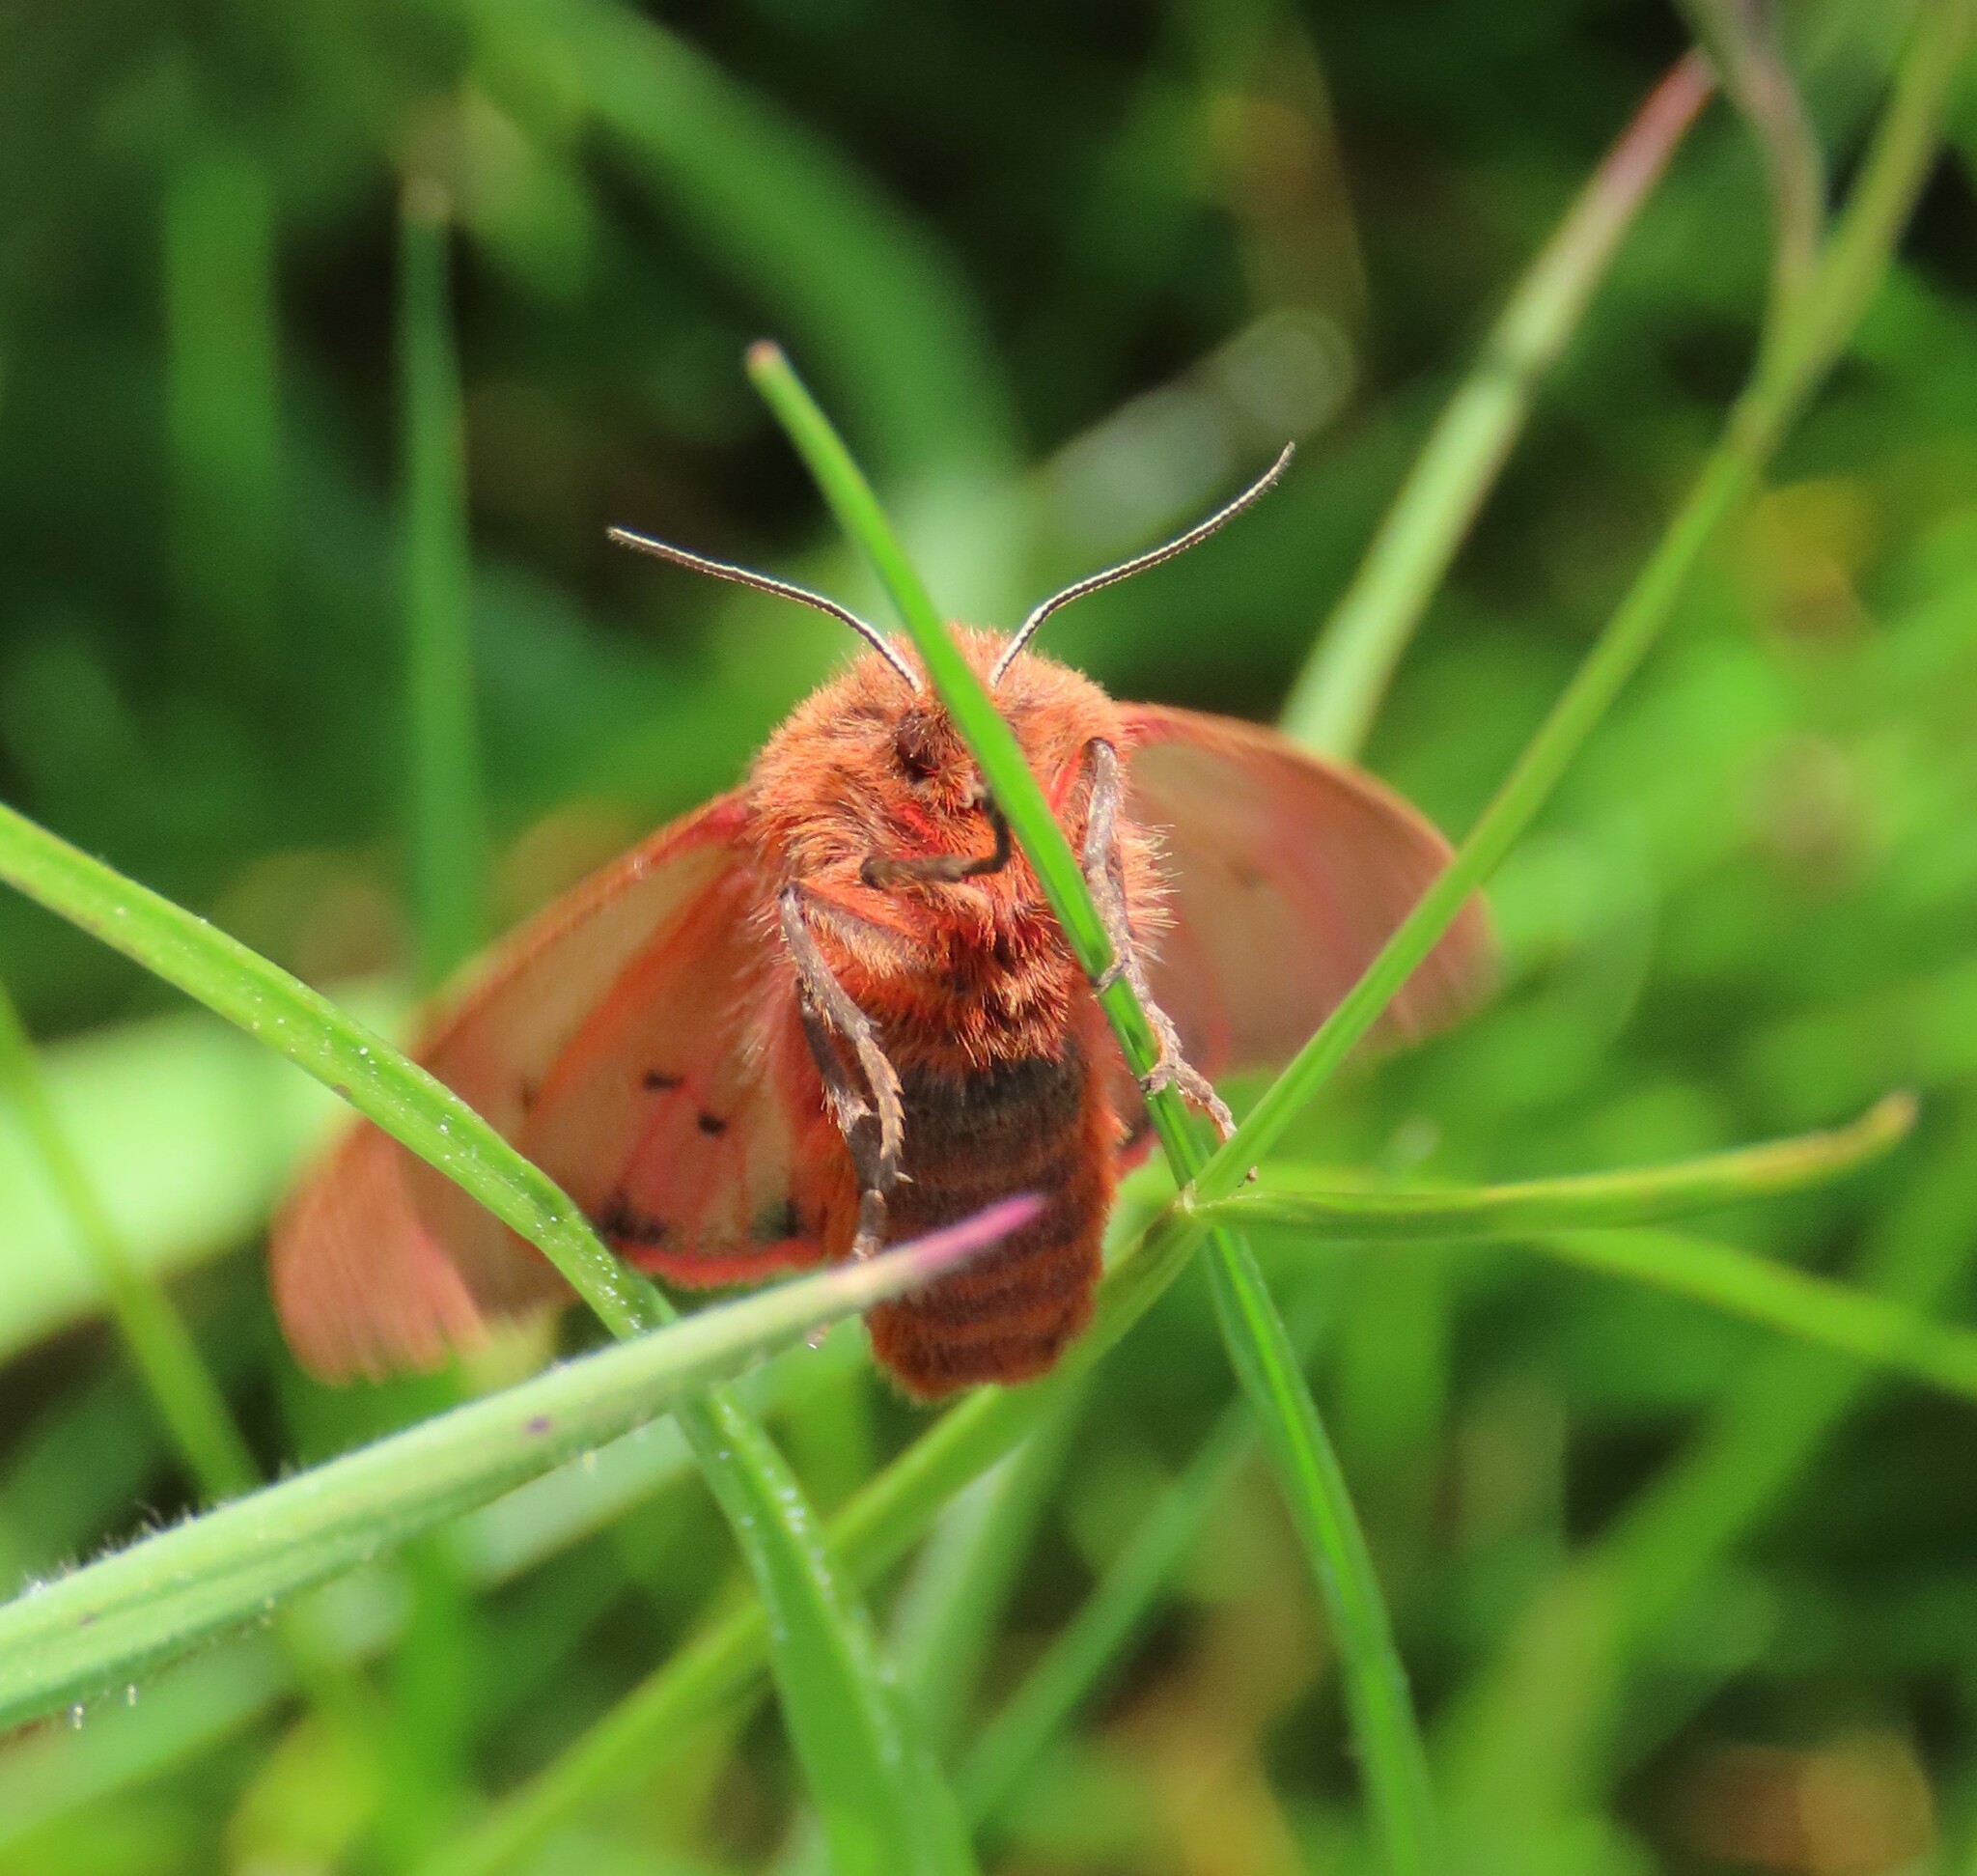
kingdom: Animalia
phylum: Arthropoda
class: Insecta
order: Lepidoptera
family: Erebidae
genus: Phragmatobia
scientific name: Phragmatobia fuliginosa
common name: Ruby tiger
